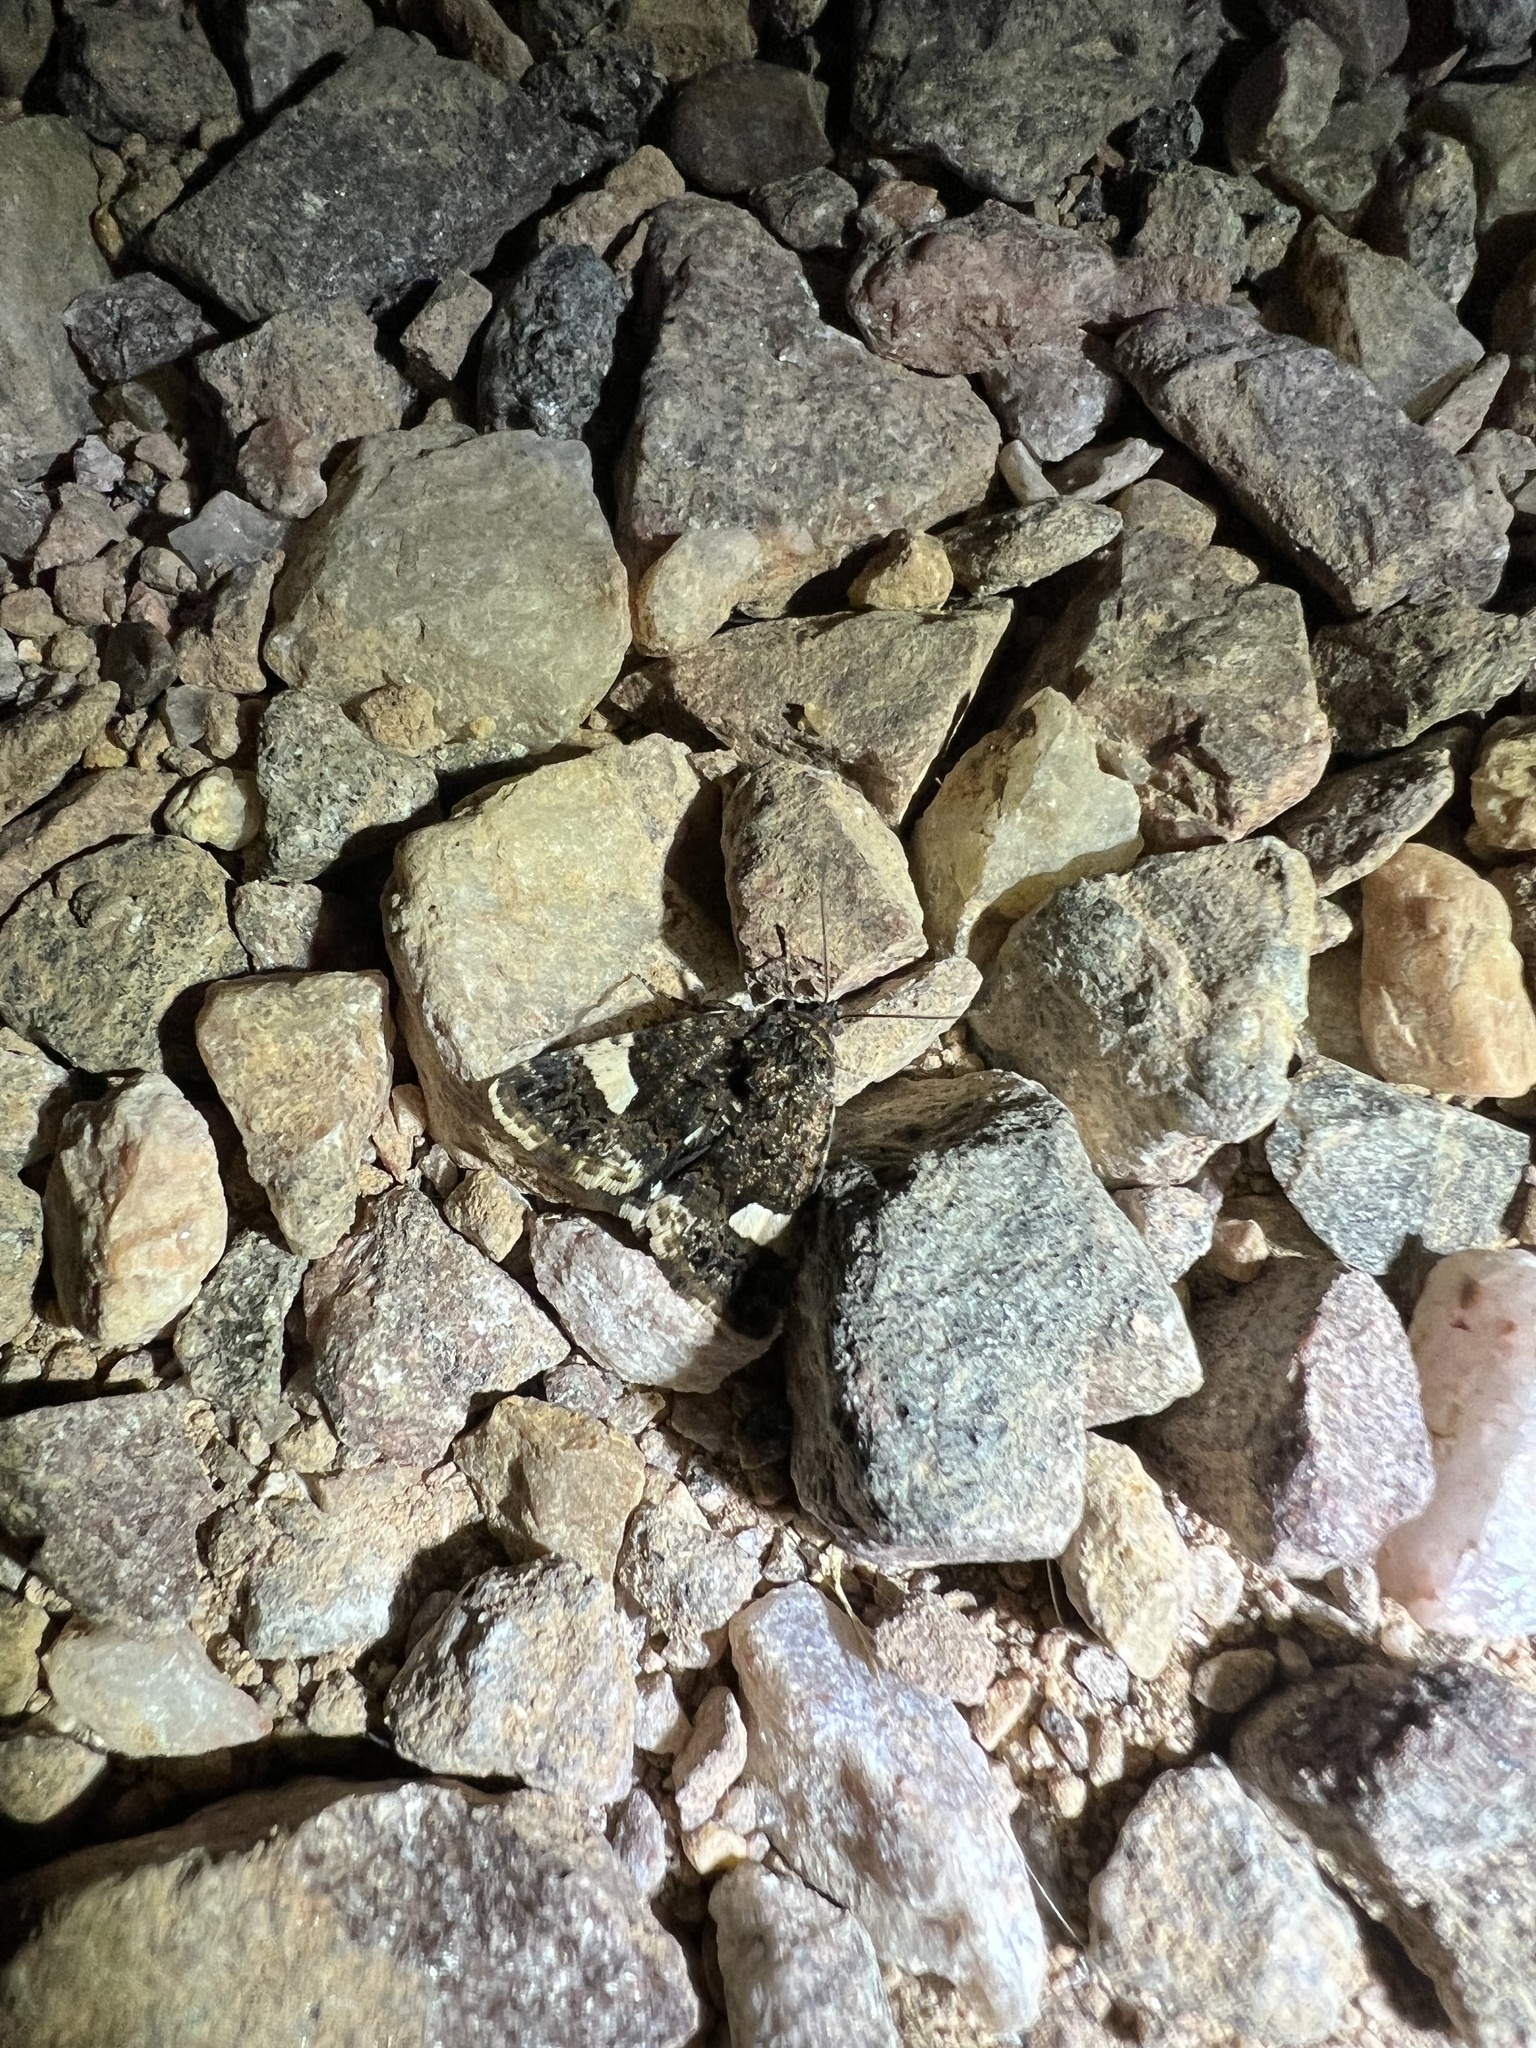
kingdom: Animalia
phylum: Arthropoda
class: Insecta
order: Lepidoptera
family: Erebidae
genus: Tyta
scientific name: Tyta luctuosa
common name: Four-spotted
